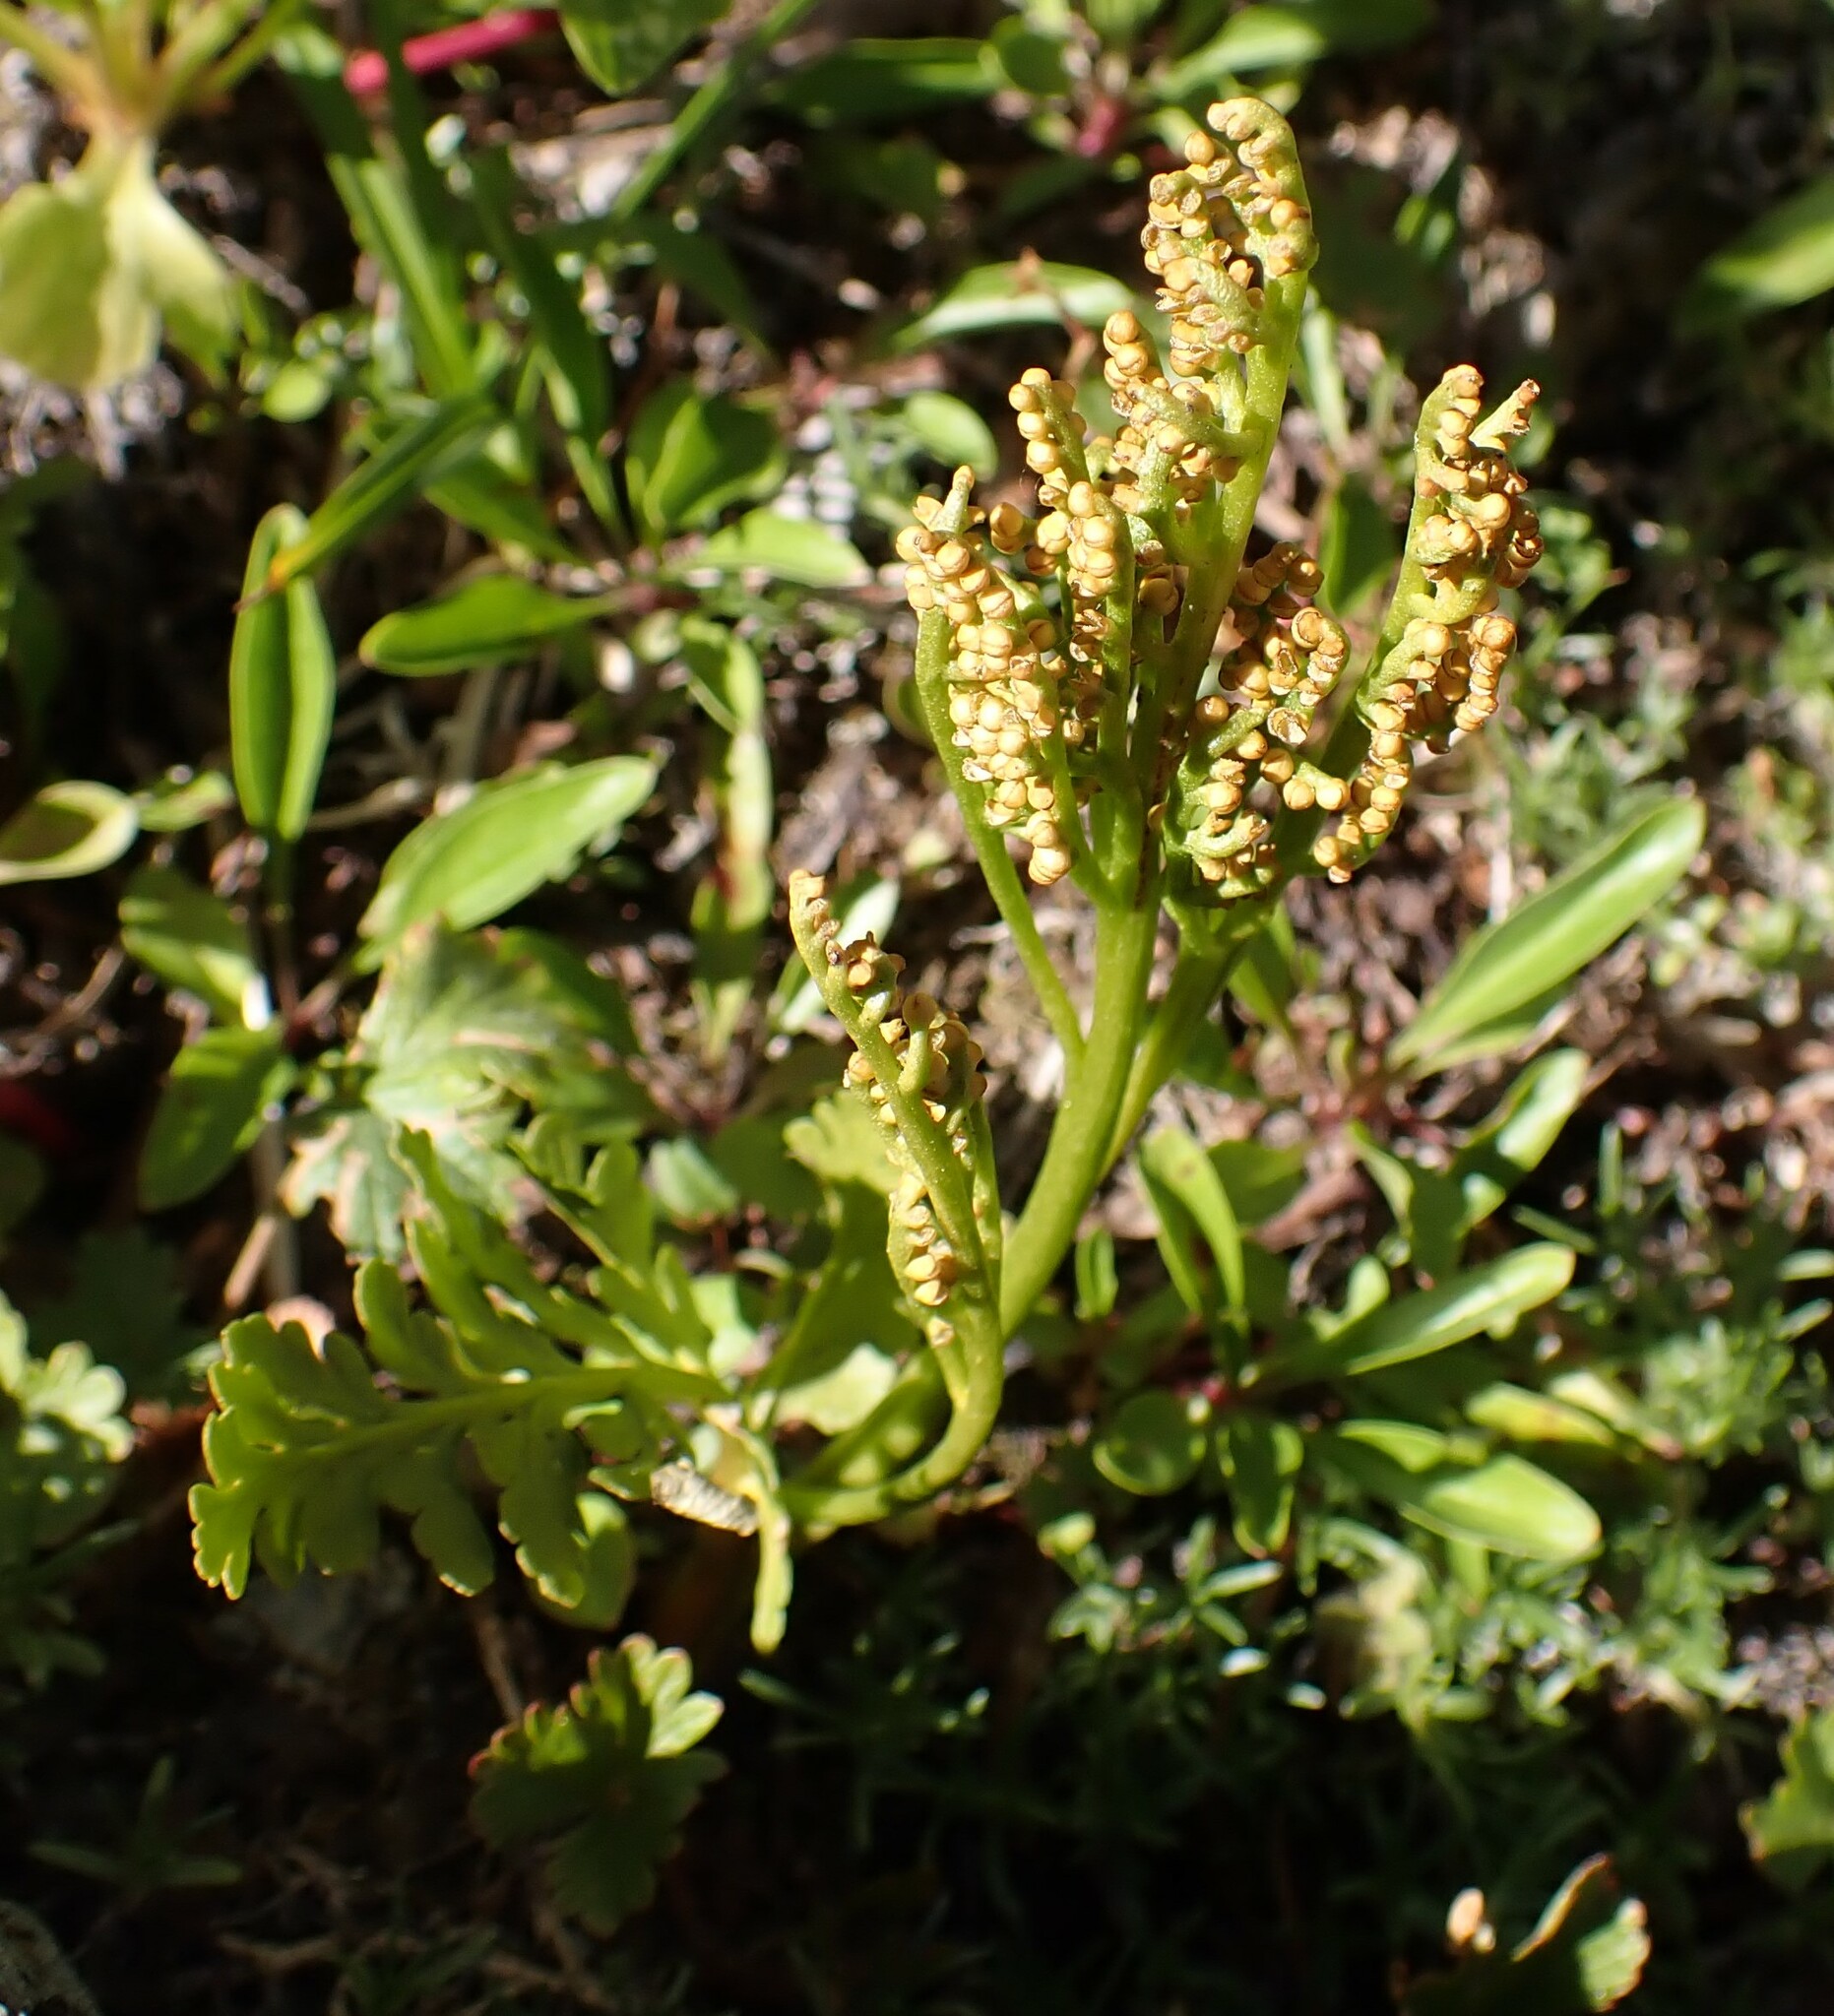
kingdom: Plantae
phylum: Tracheophyta
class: Polypodiopsida
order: Ophioglossales
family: Ophioglossaceae
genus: Botrychium
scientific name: Botrychium pinnatum
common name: Northwestern moonwort
